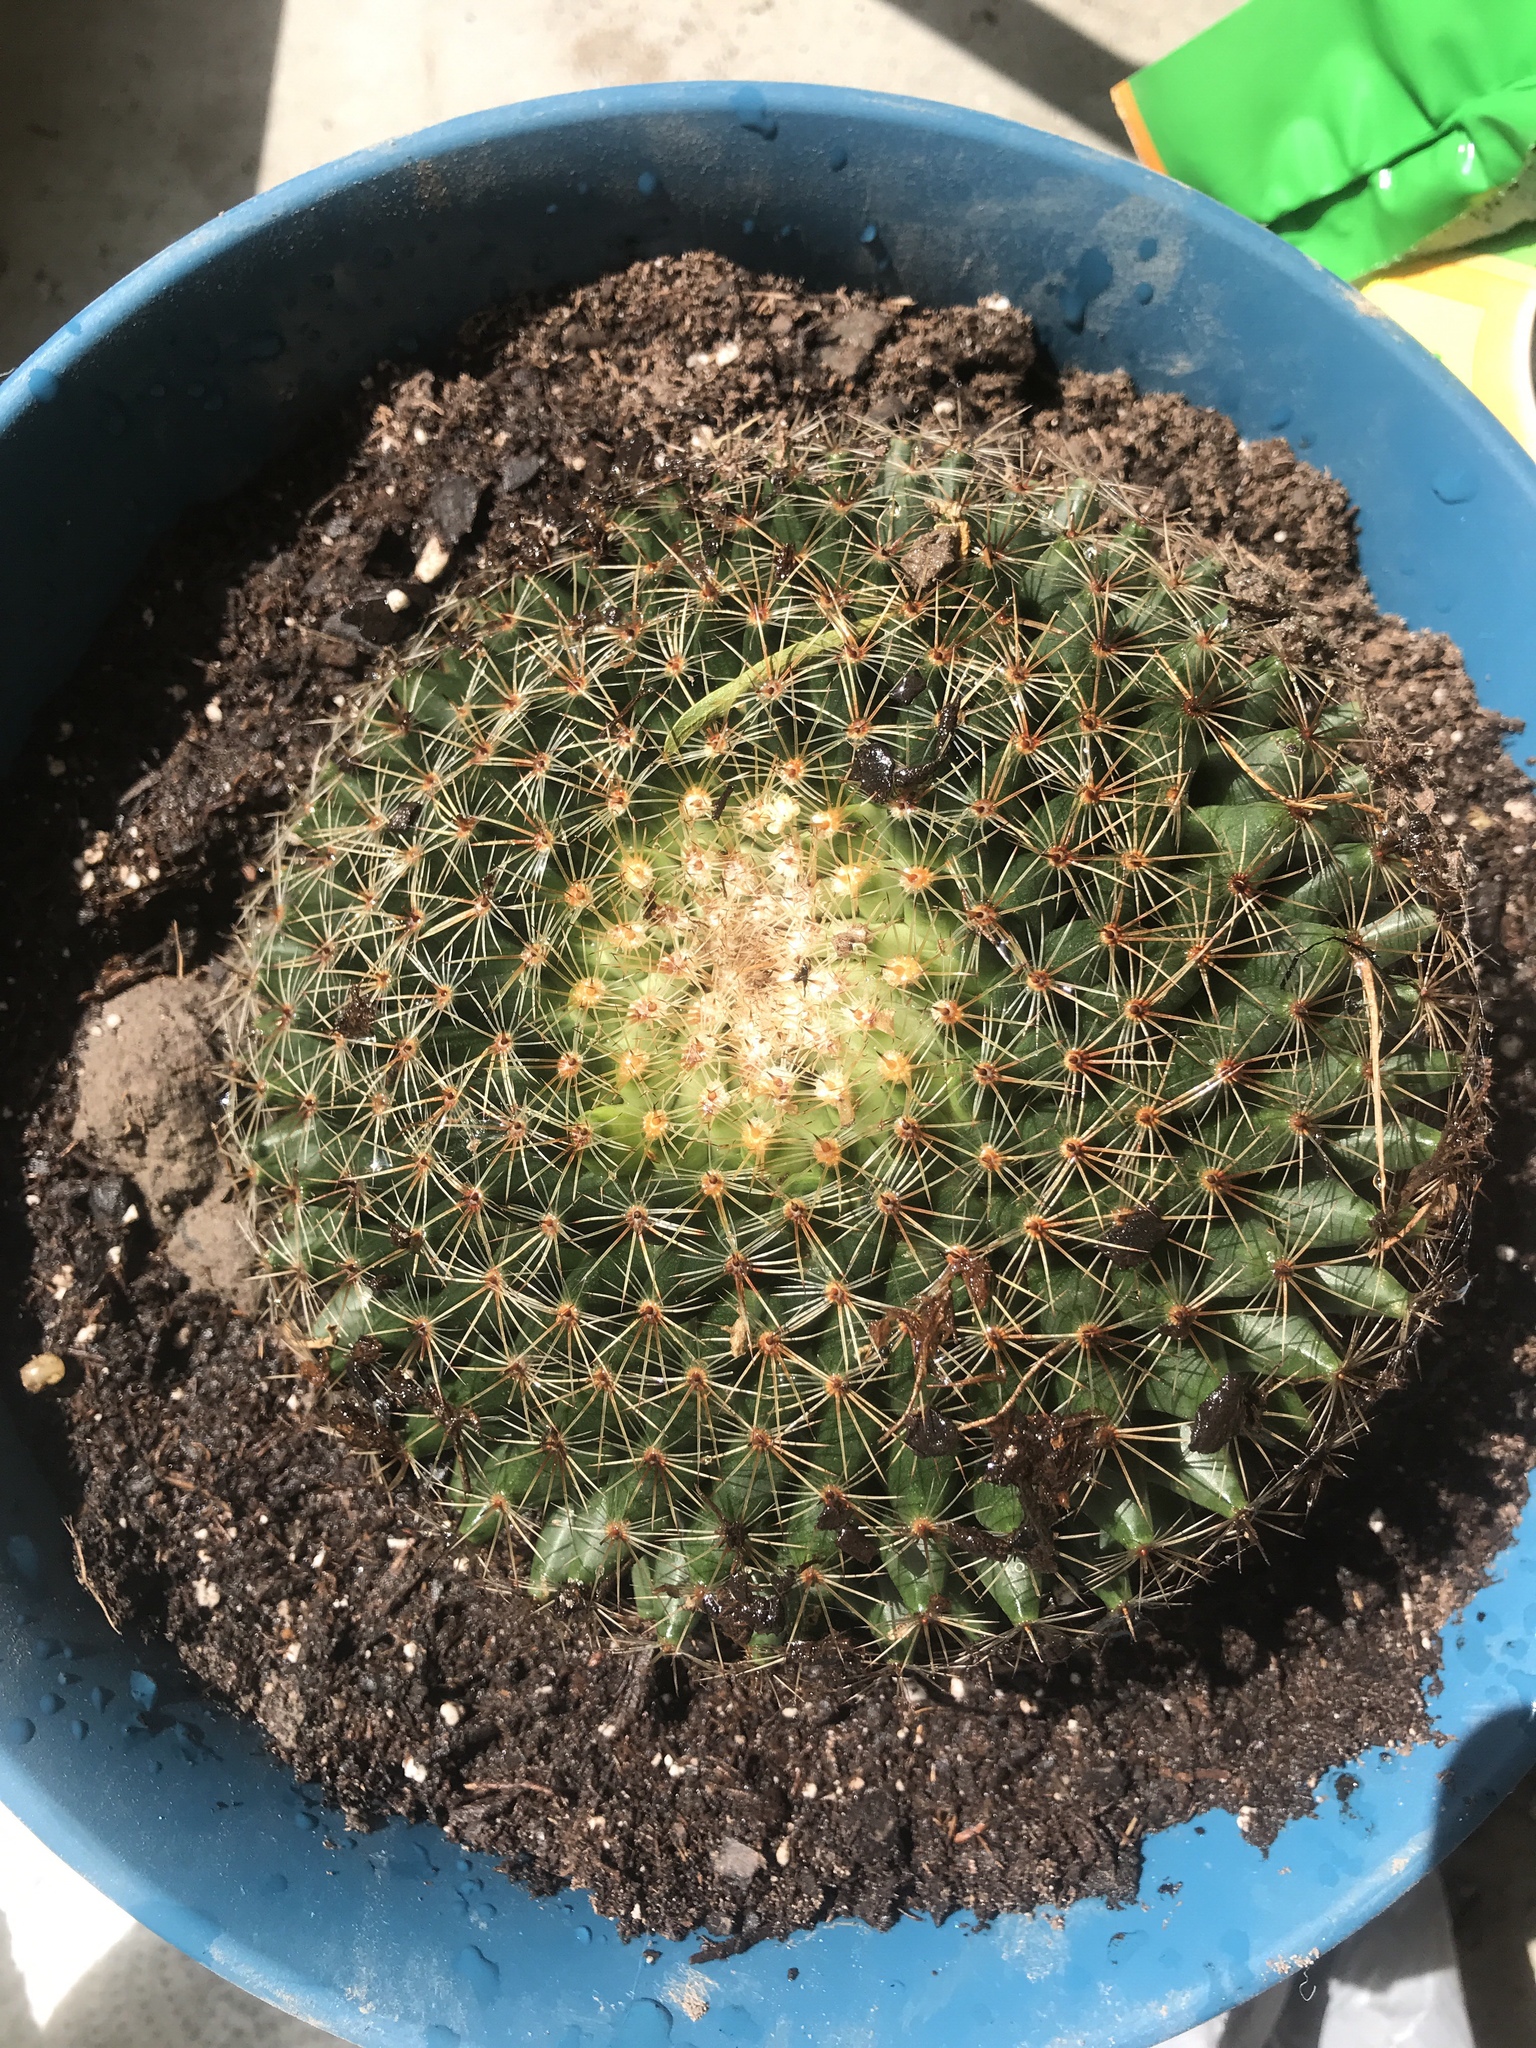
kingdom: Plantae
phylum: Tracheophyta
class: Magnoliopsida
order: Caryophyllales
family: Cactaceae
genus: Mammillaria
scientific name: Mammillaria heyderi
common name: Little nipple cactus
